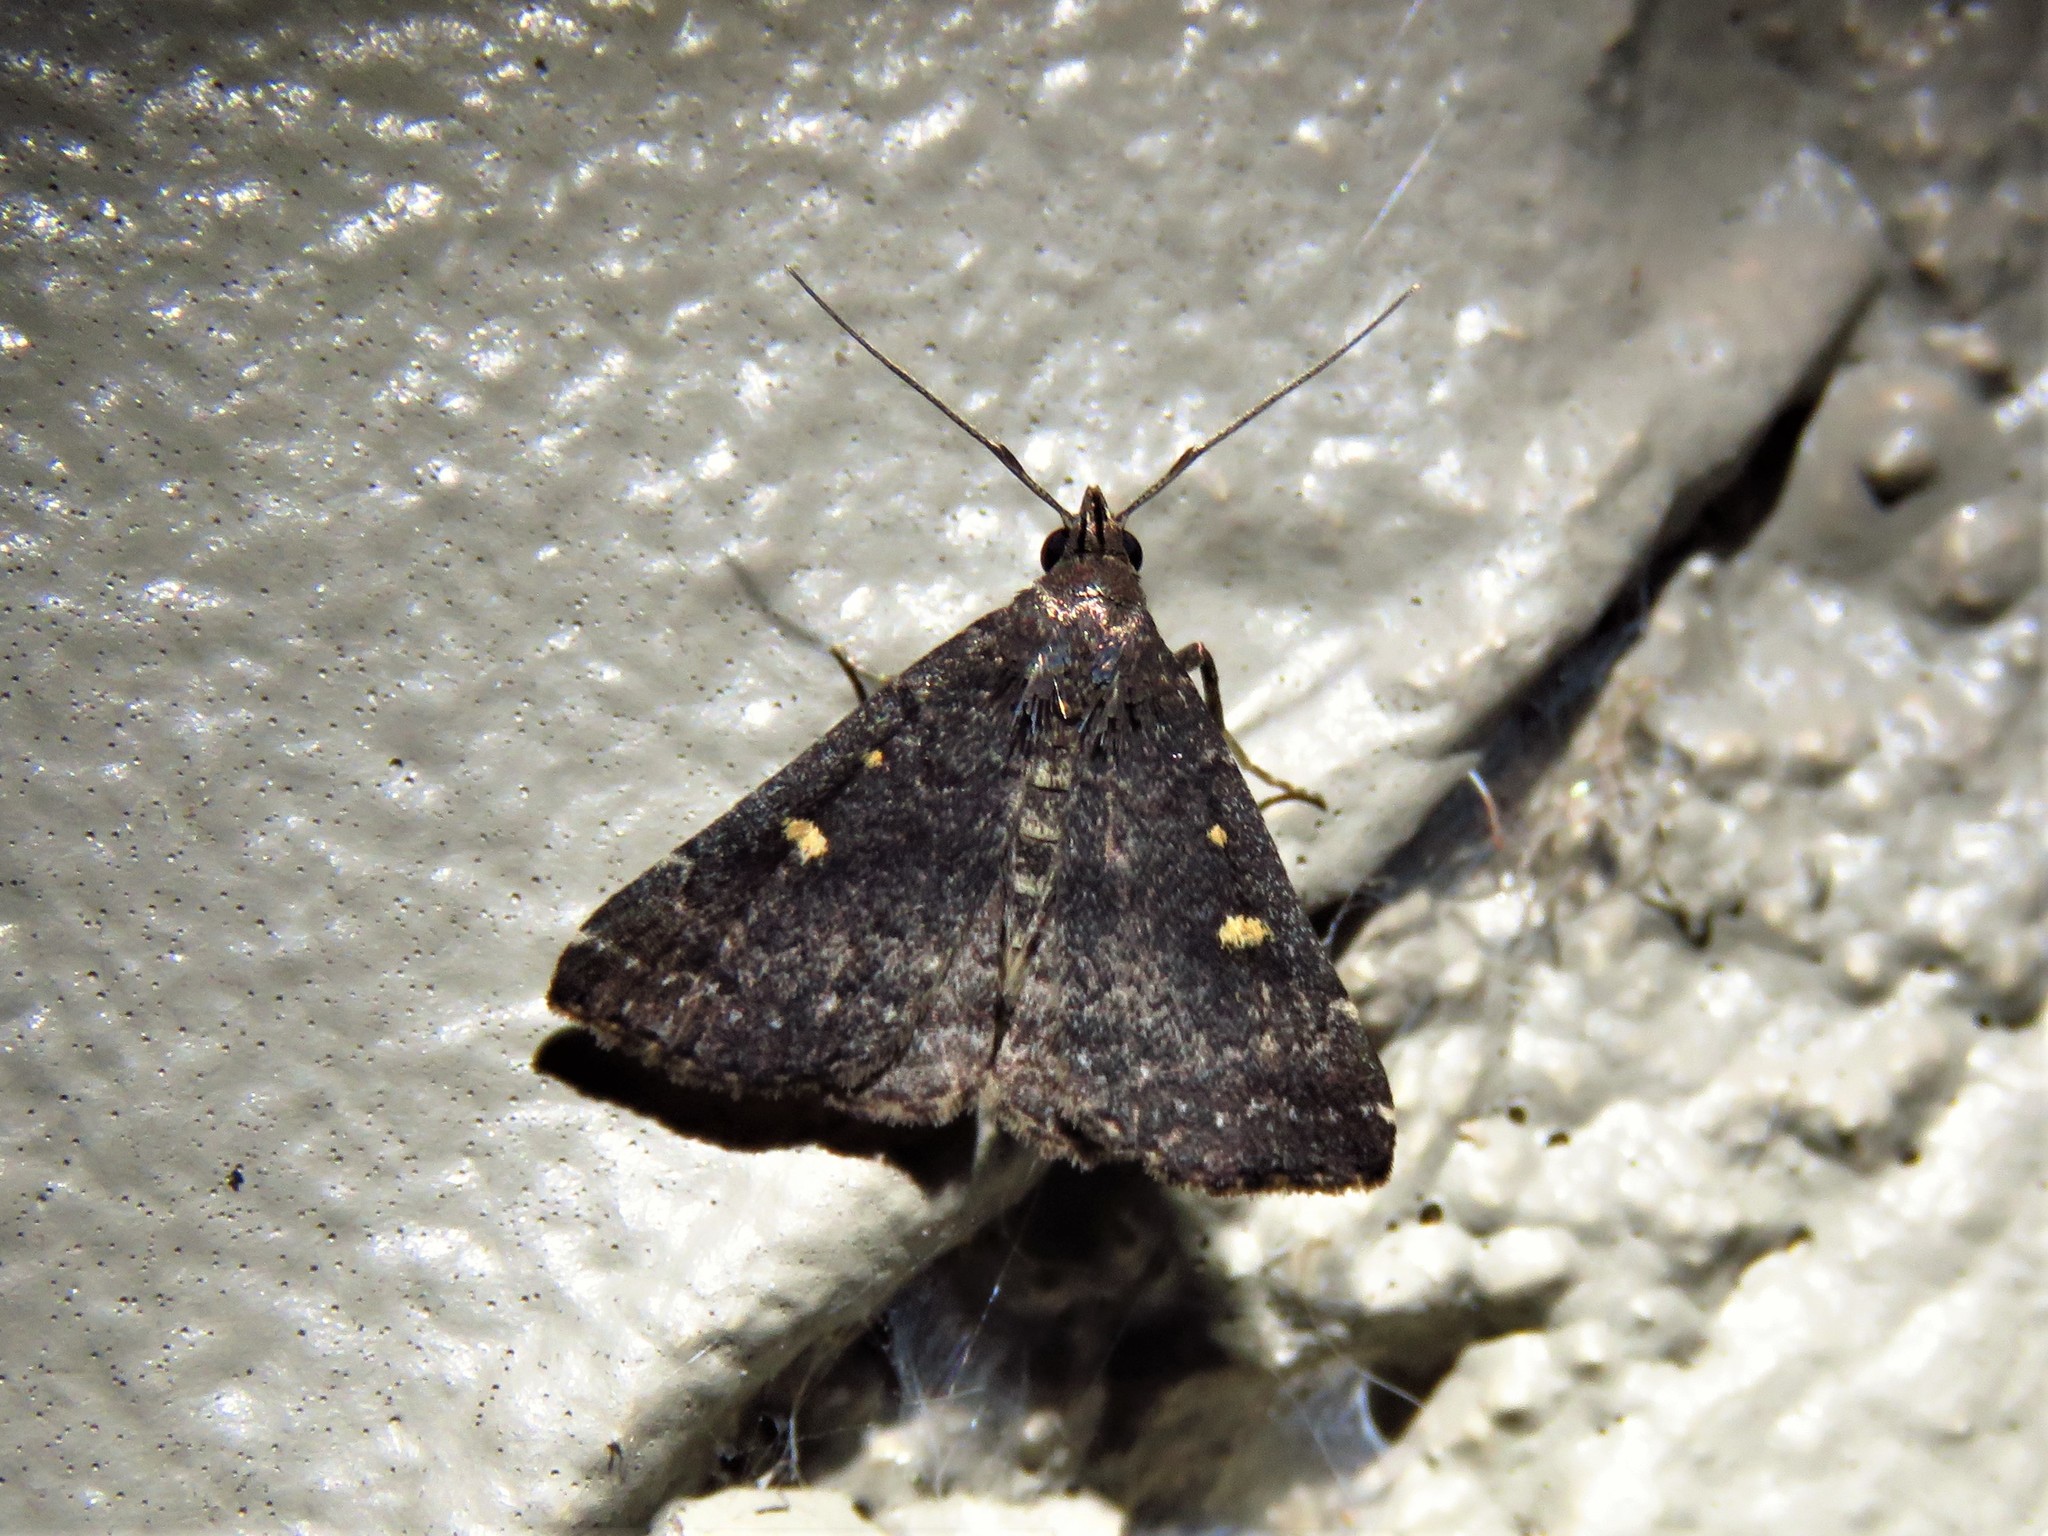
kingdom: Animalia
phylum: Arthropoda
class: Insecta
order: Lepidoptera
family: Erebidae
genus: Tetanolita
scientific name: Tetanolita mynesalis
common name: Smoky tetanolita moth
